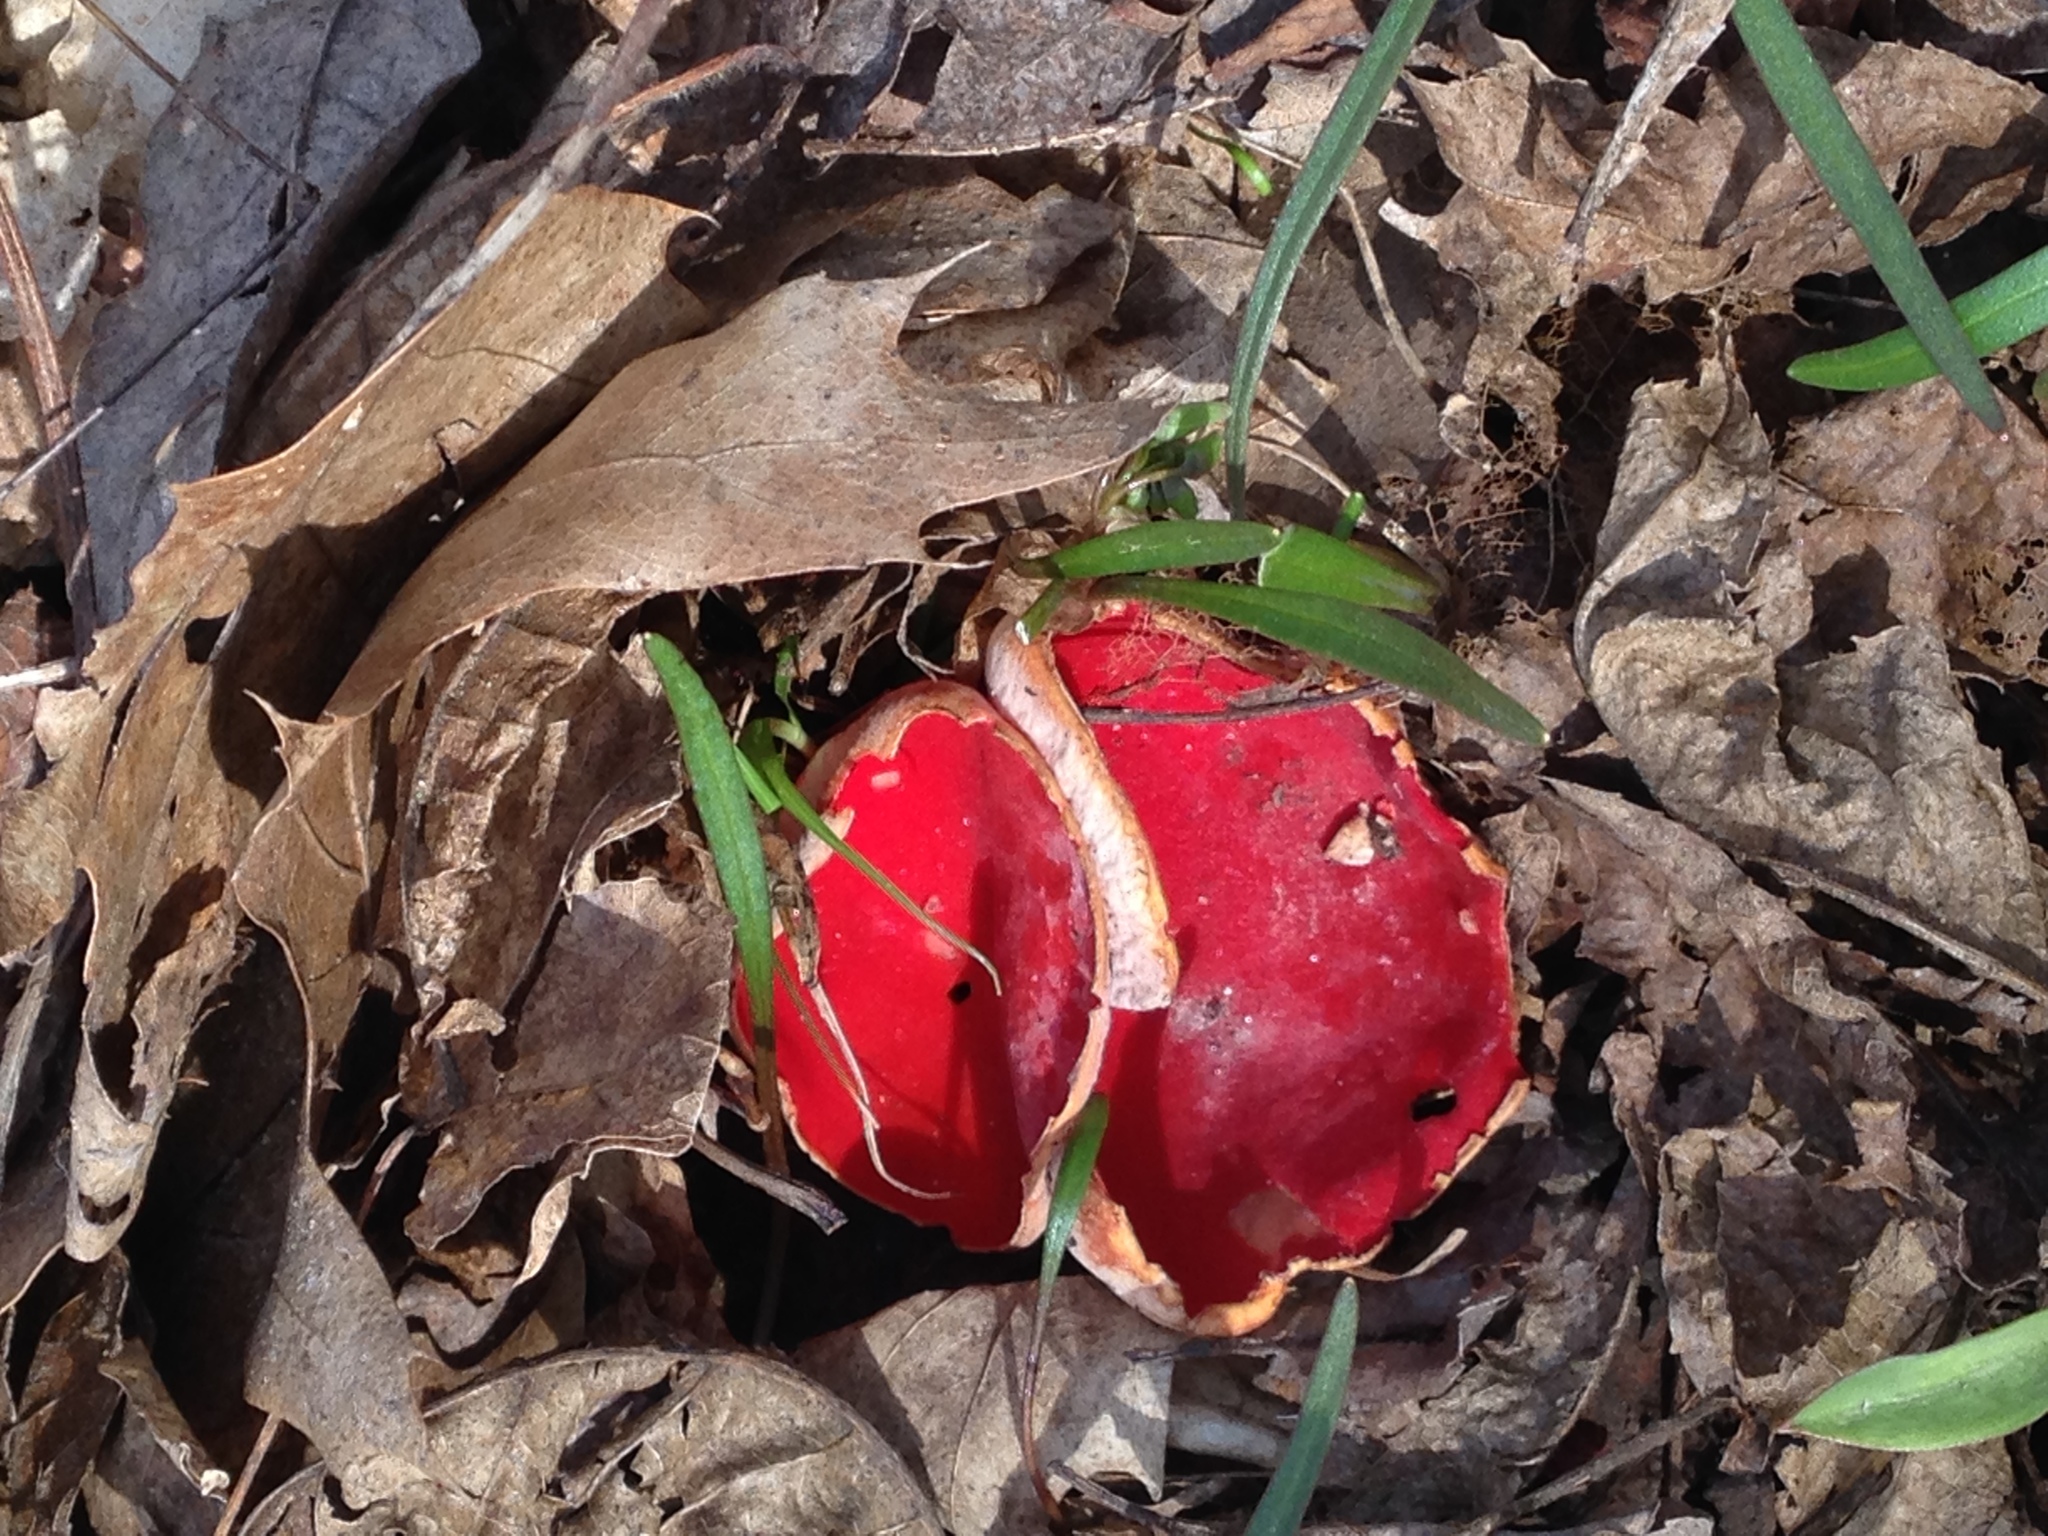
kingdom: Fungi
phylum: Ascomycota
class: Pezizomycetes
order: Pezizales
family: Sarcoscyphaceae
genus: Sarcoscypha
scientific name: Sarcoscypha austriaca
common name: Scarlet elfcup
